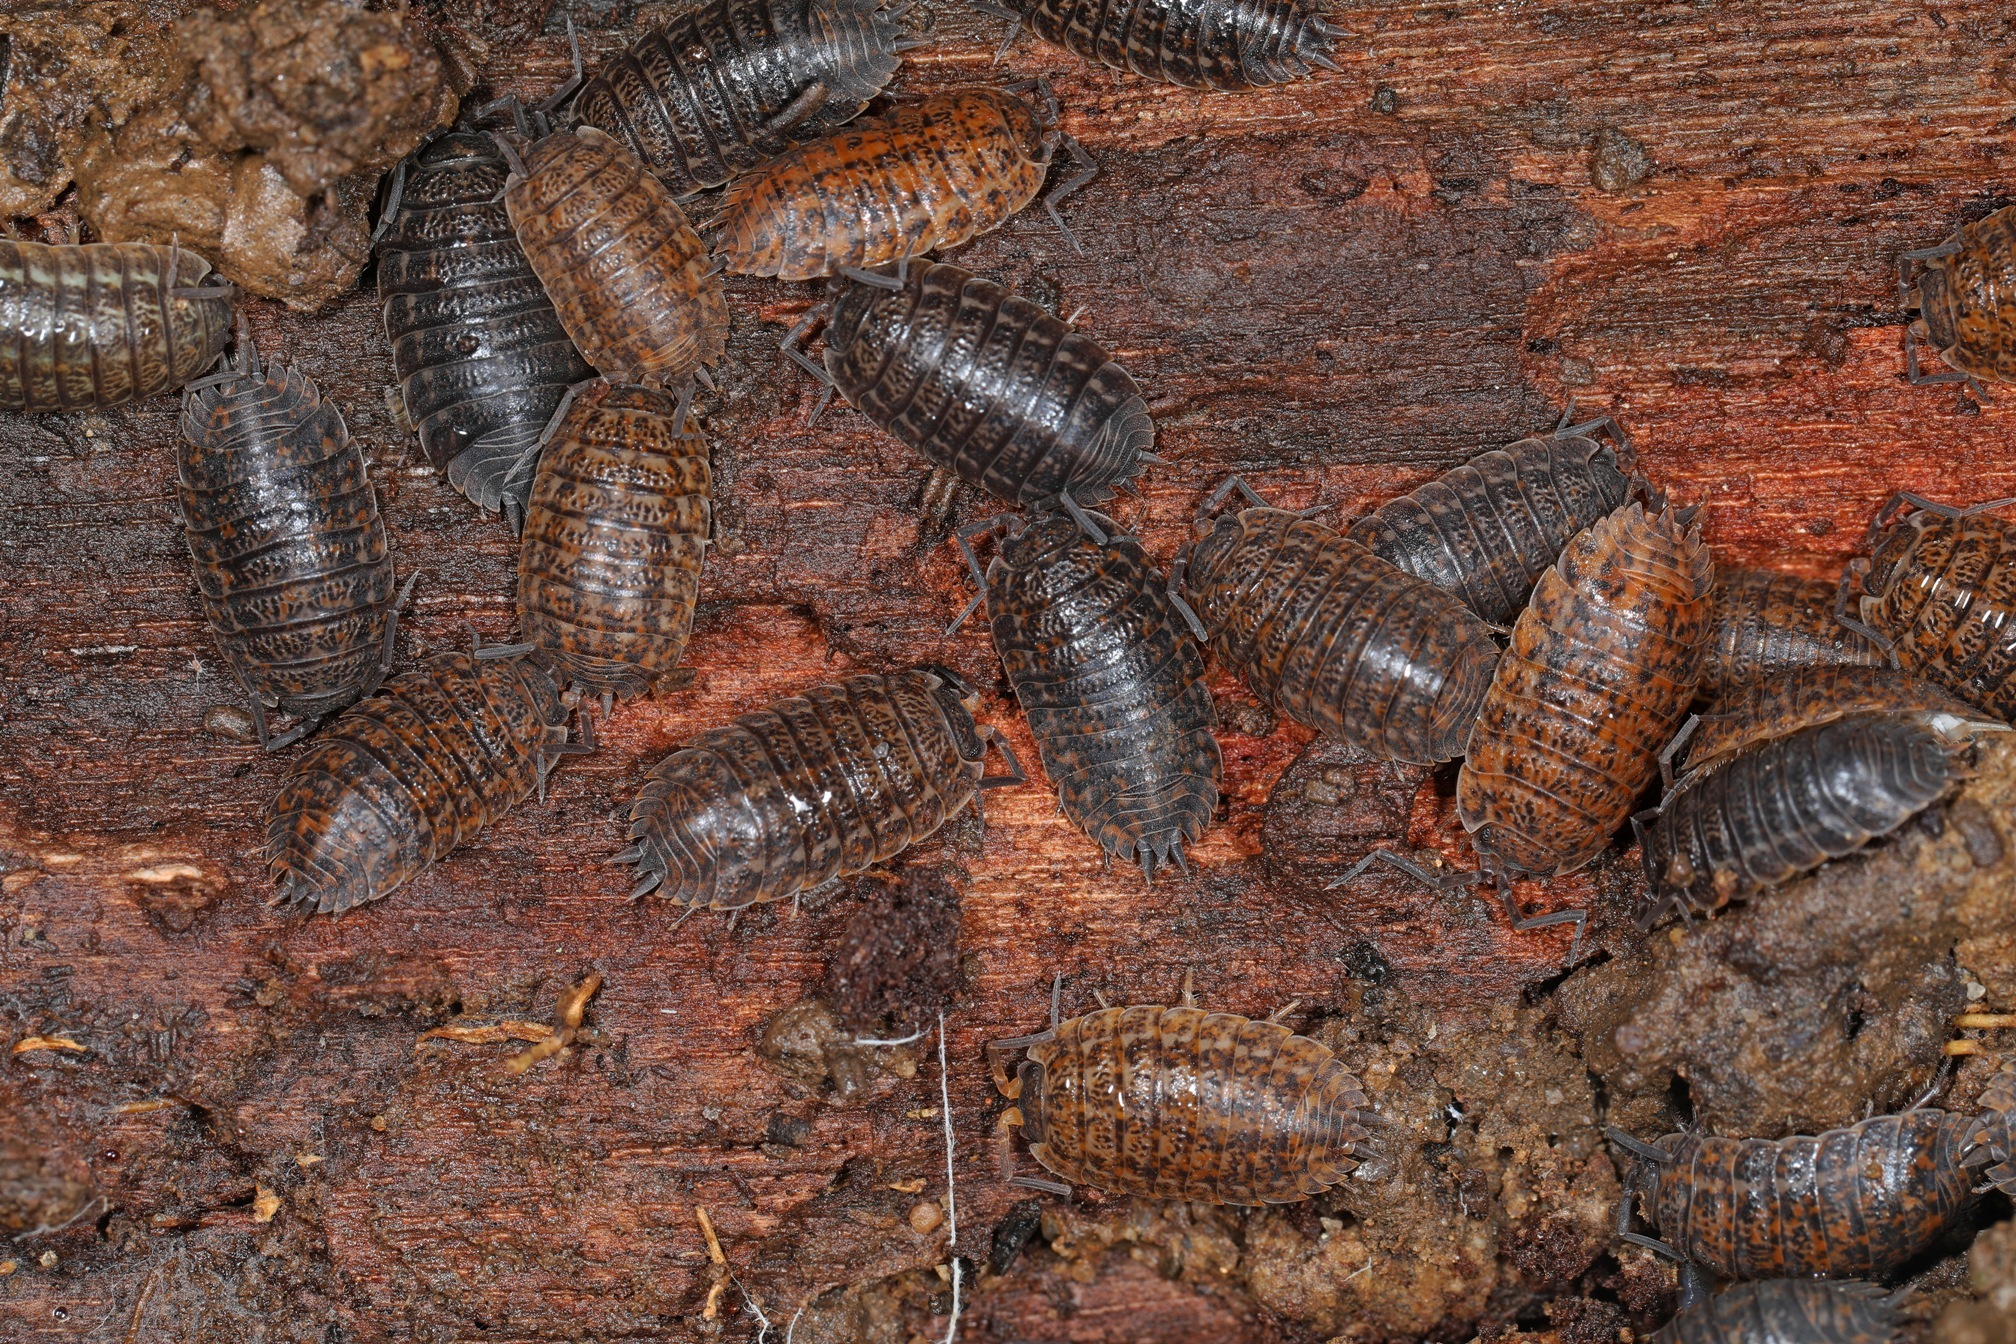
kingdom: Animalia
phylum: Arthropoda
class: Malacostraca
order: Isopoda
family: Trachelipodidae
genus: Trachelipus
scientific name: Trachelipus rathkii
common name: Isopod
